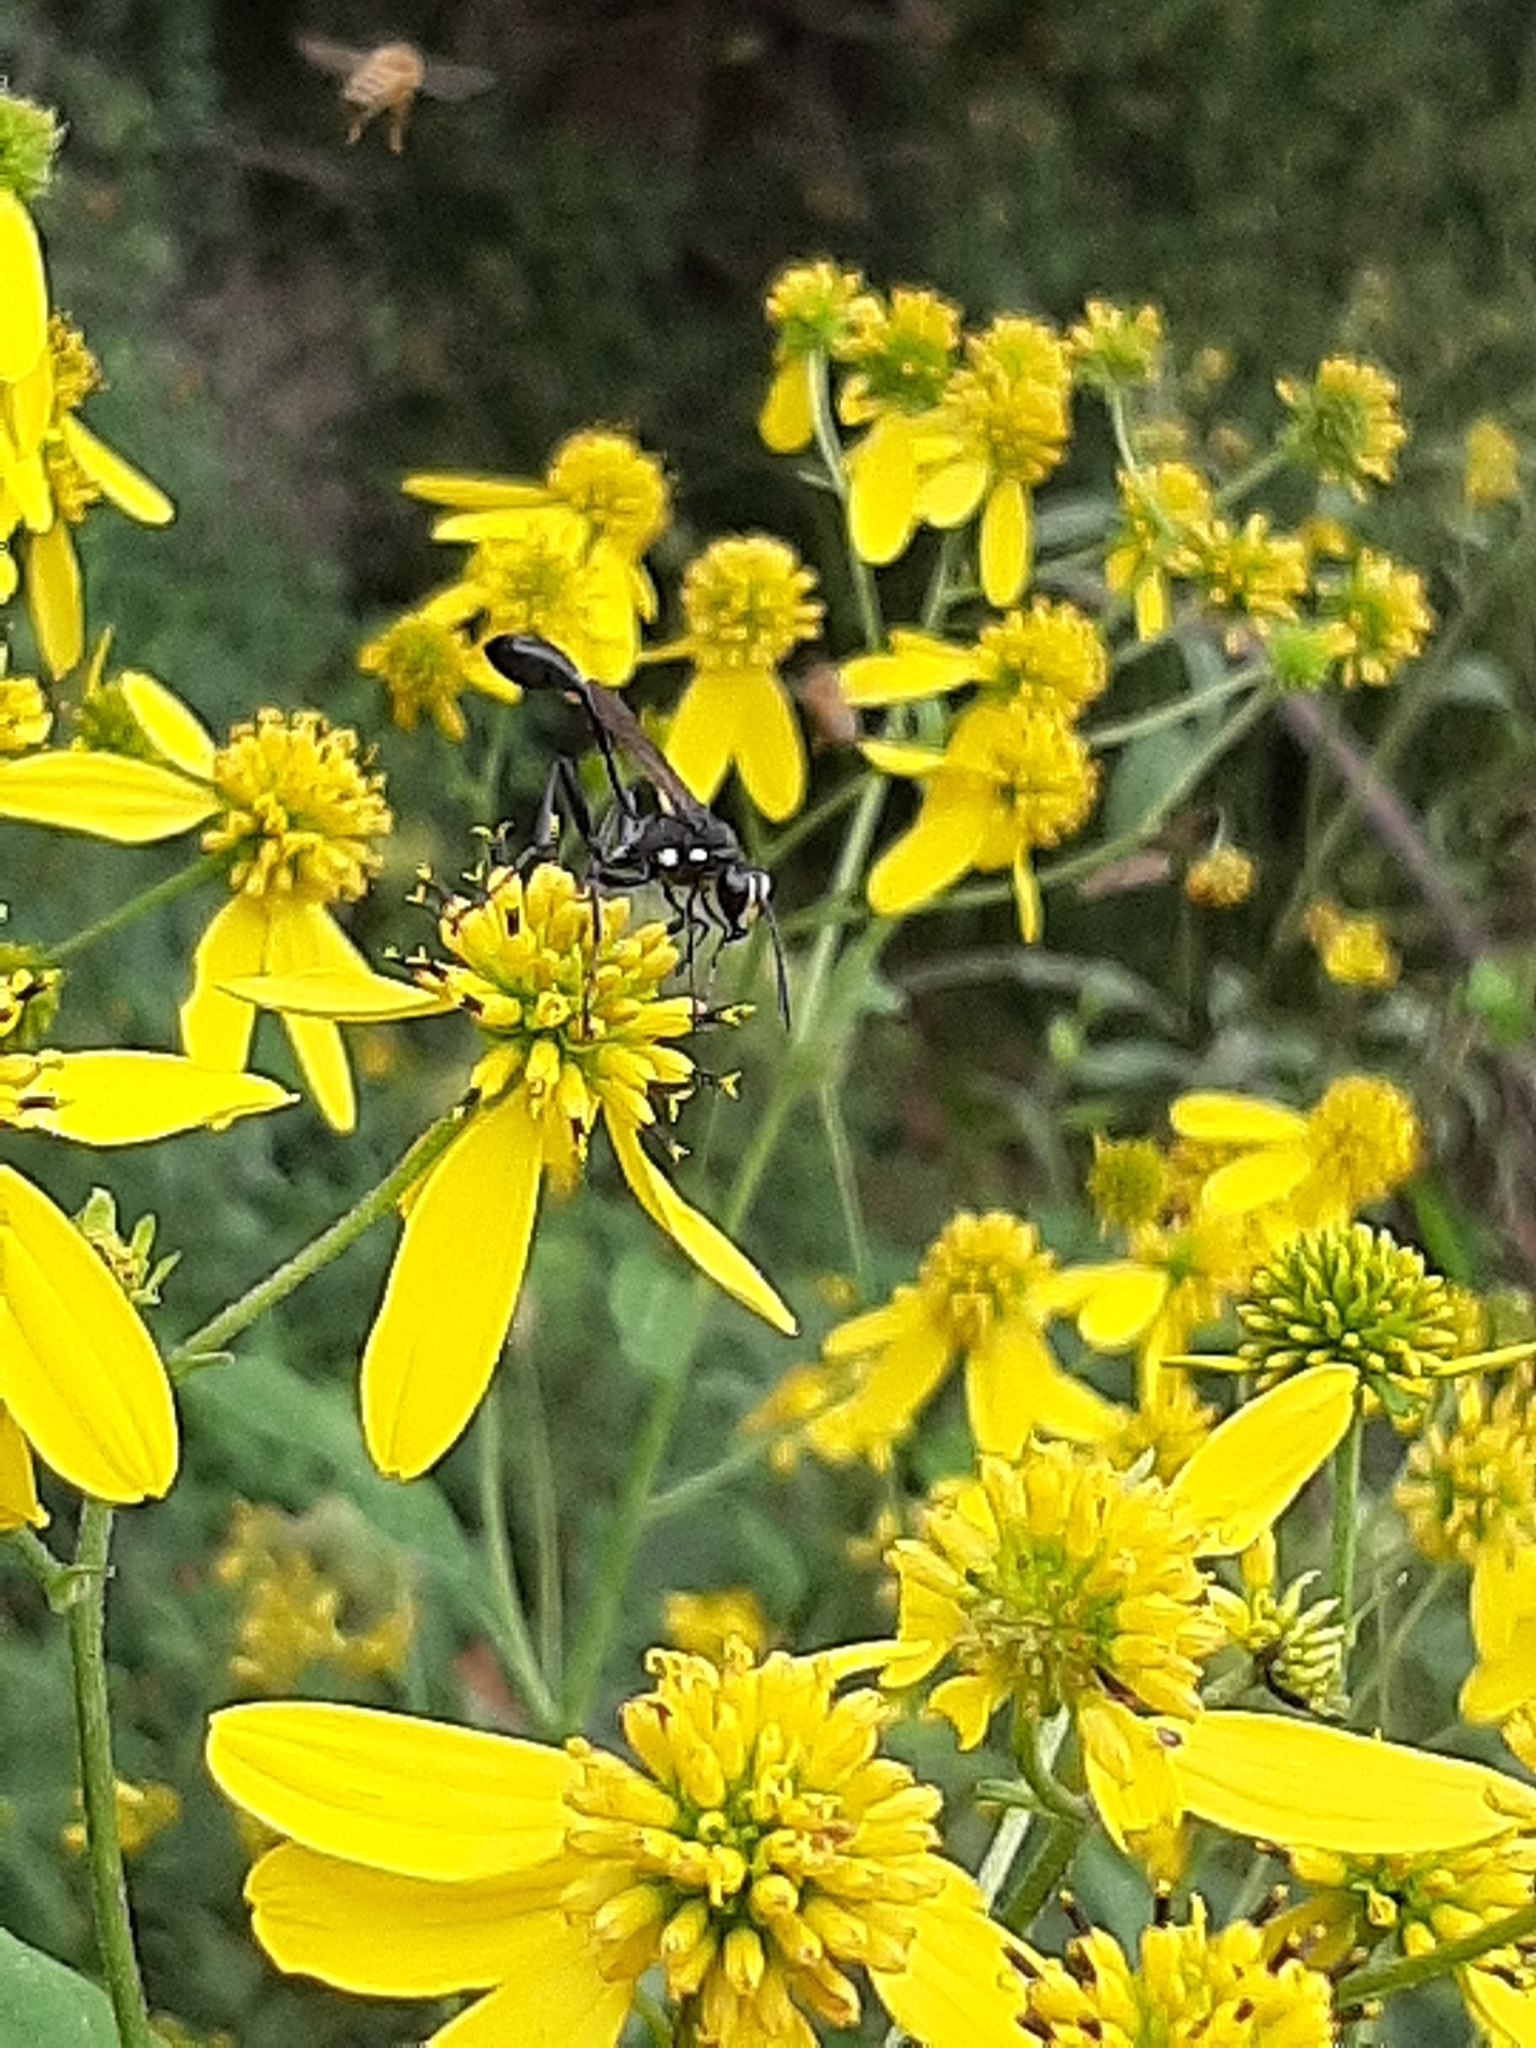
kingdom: Animalia
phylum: Arthropoda
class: Insecta
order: Hymenoptera
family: Sphecidae
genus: Eremnophila
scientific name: Eremnophila aureonotata
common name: Gold-marked thread-waisted wasp
